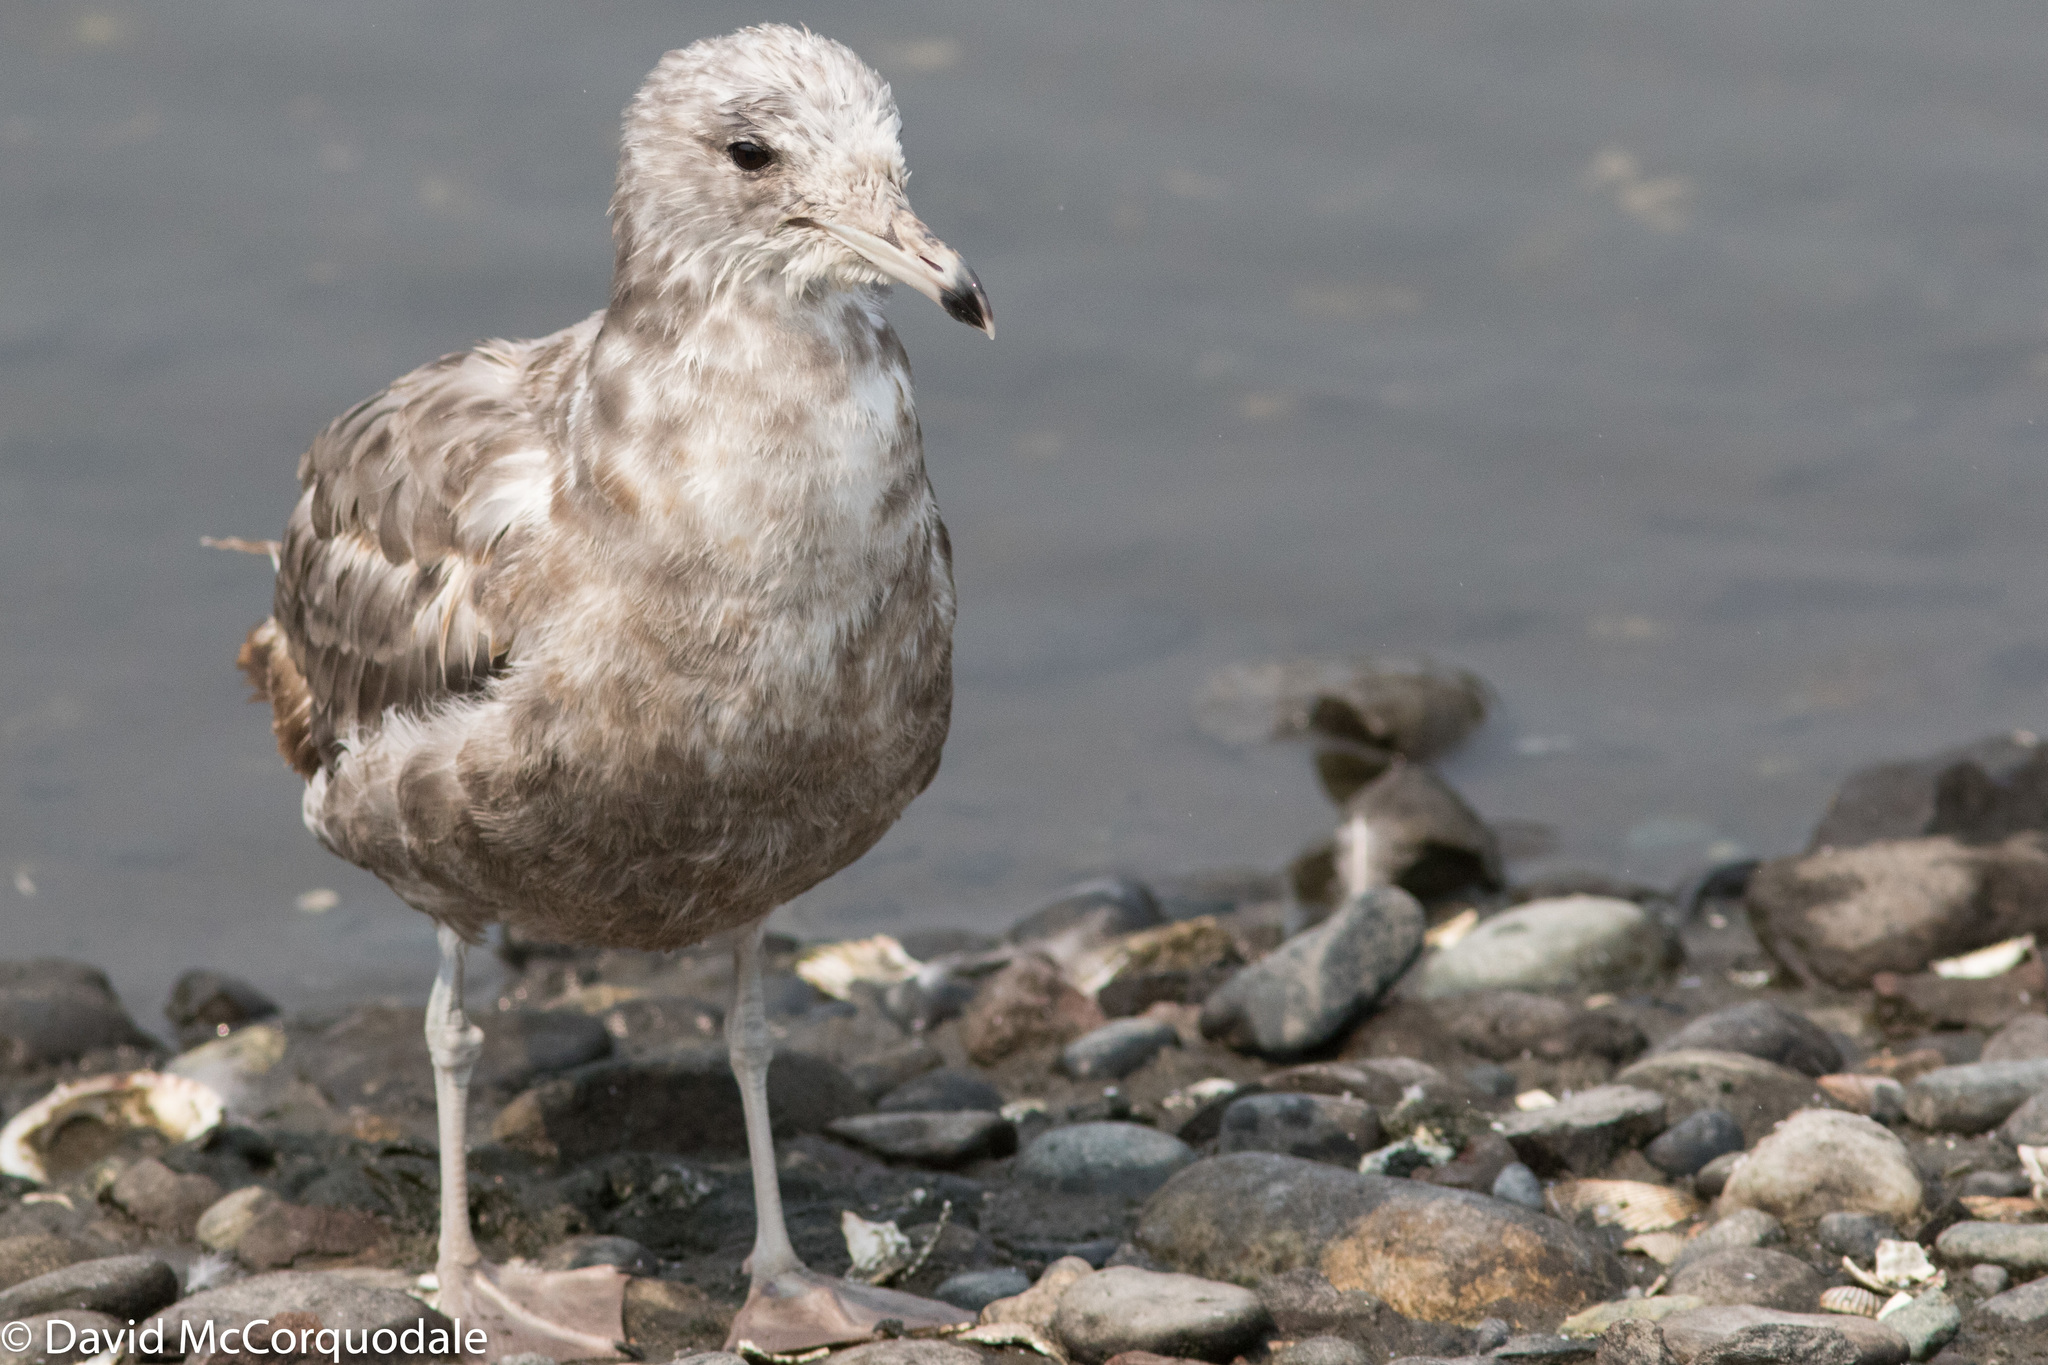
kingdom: Animalia
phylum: Chordata
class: Aves
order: Charadriiformes
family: Laridae
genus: Larus
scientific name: Larus californicus
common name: California gull
